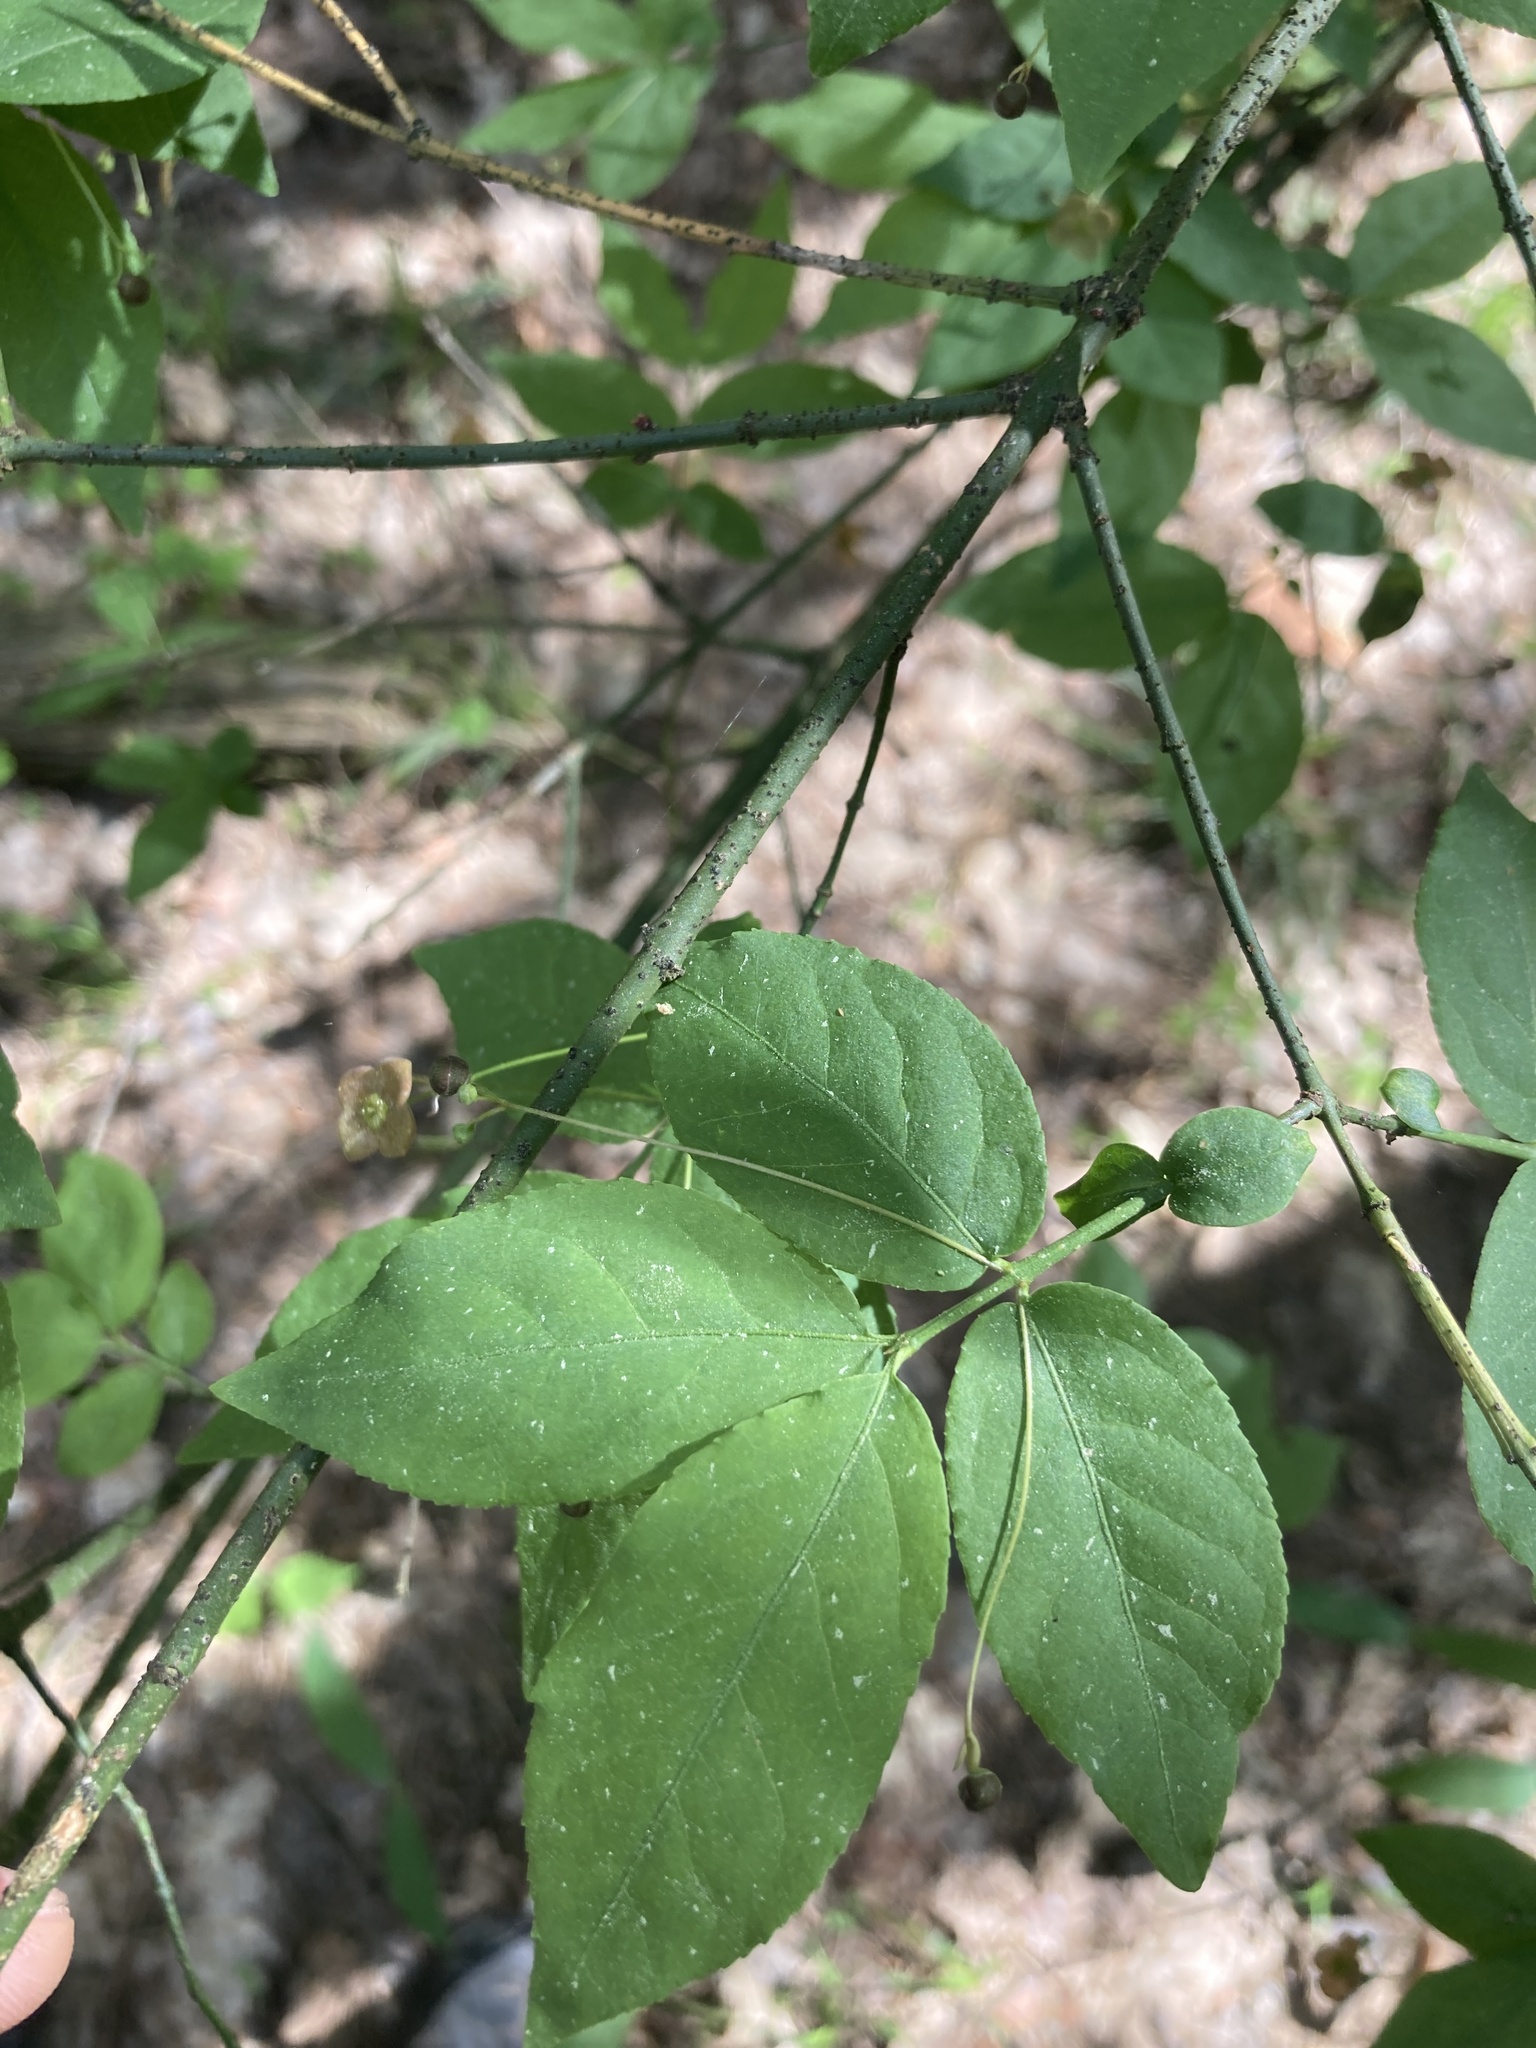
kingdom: Plantae
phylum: Tracheophyta
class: Magnoliopsida
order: Celastrales
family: Celastraceae
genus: Euonymus
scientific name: Euonymus verrucosus
